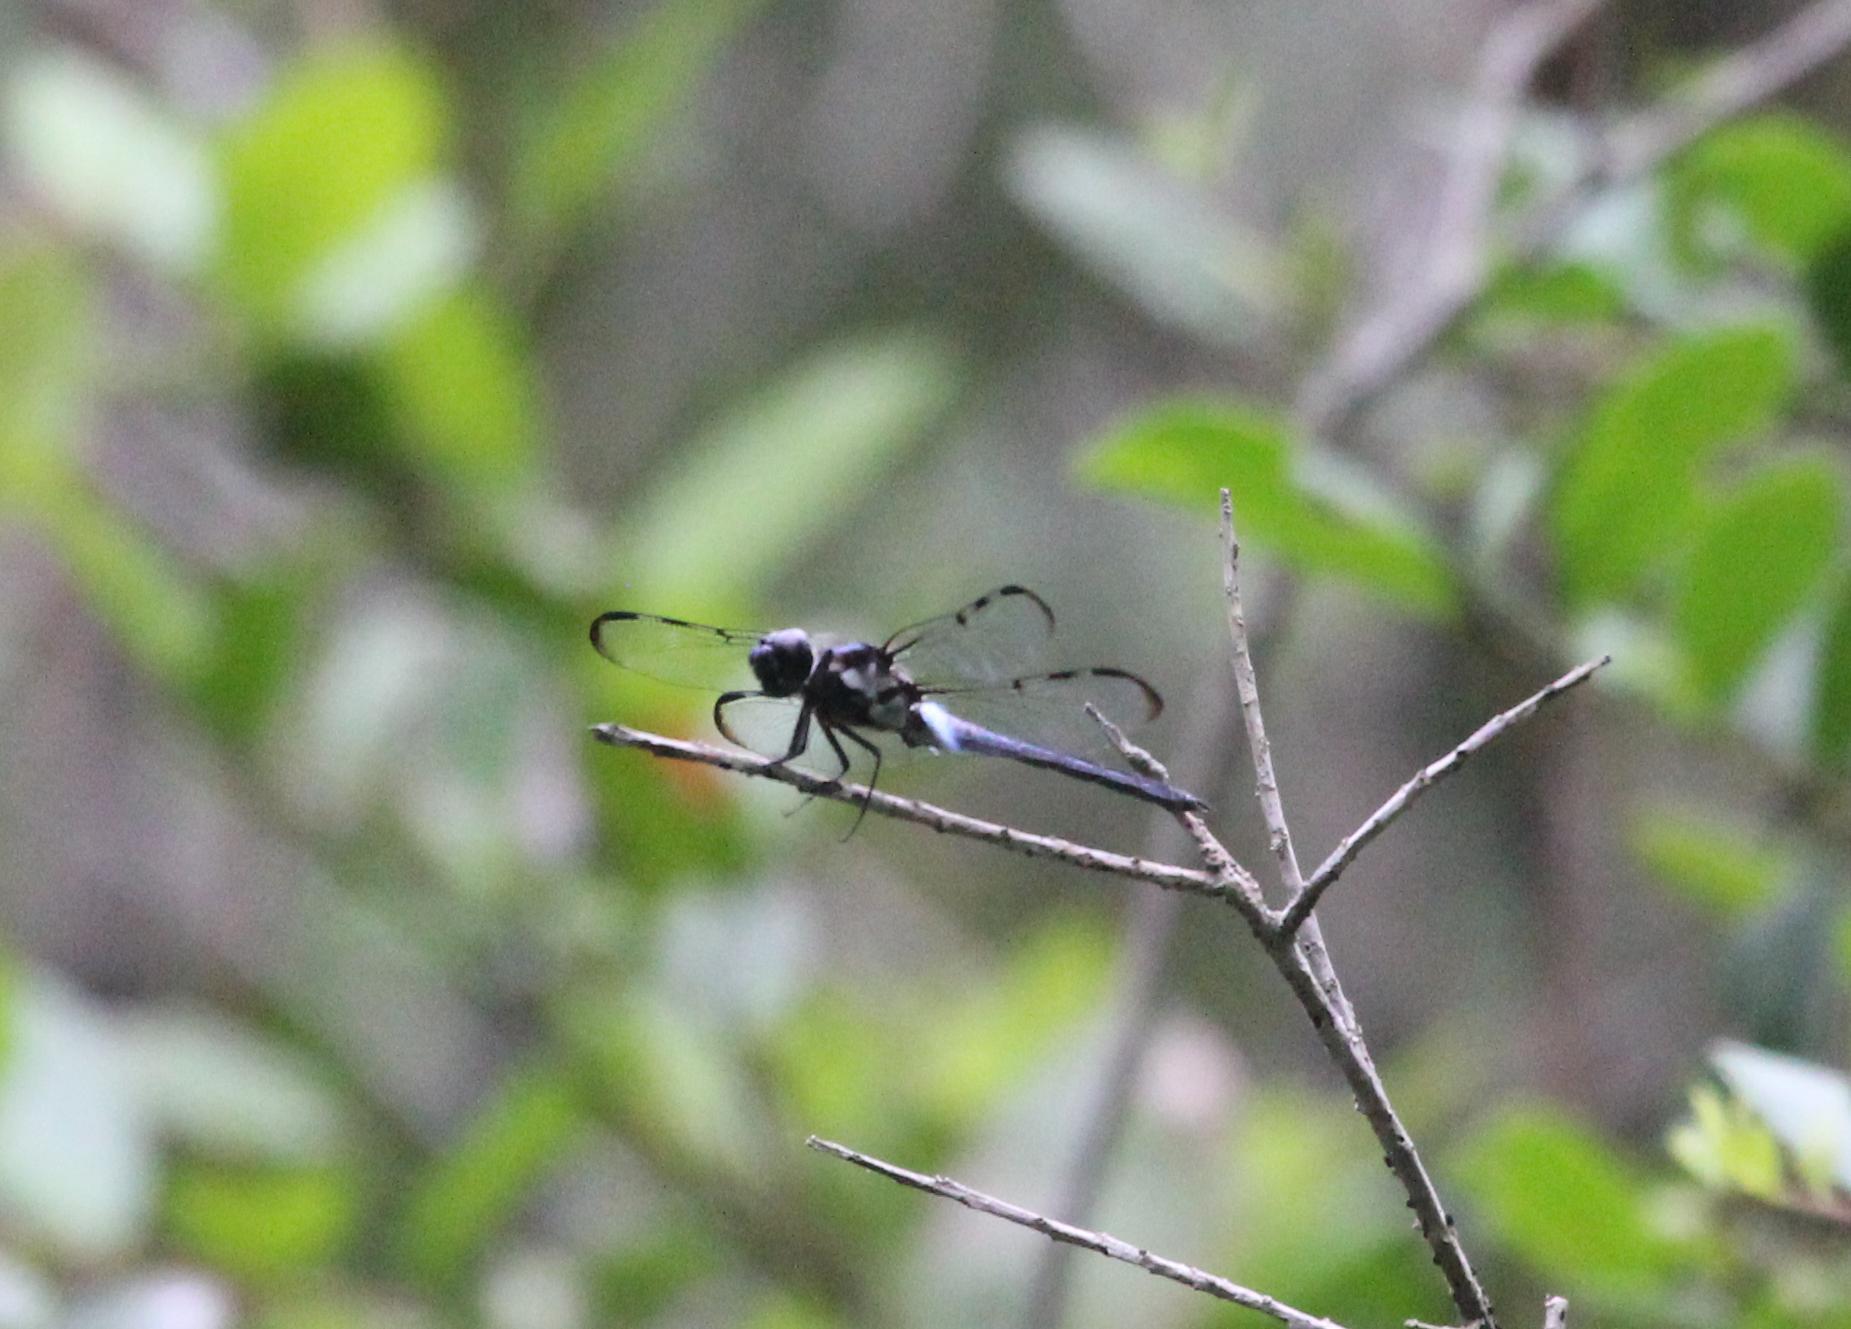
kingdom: Animalia
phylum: Arthropoda
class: Insecta
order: Odonata
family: Libellulidae
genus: Libellula
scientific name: Libellula axilena
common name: Bar-winged skimmer
